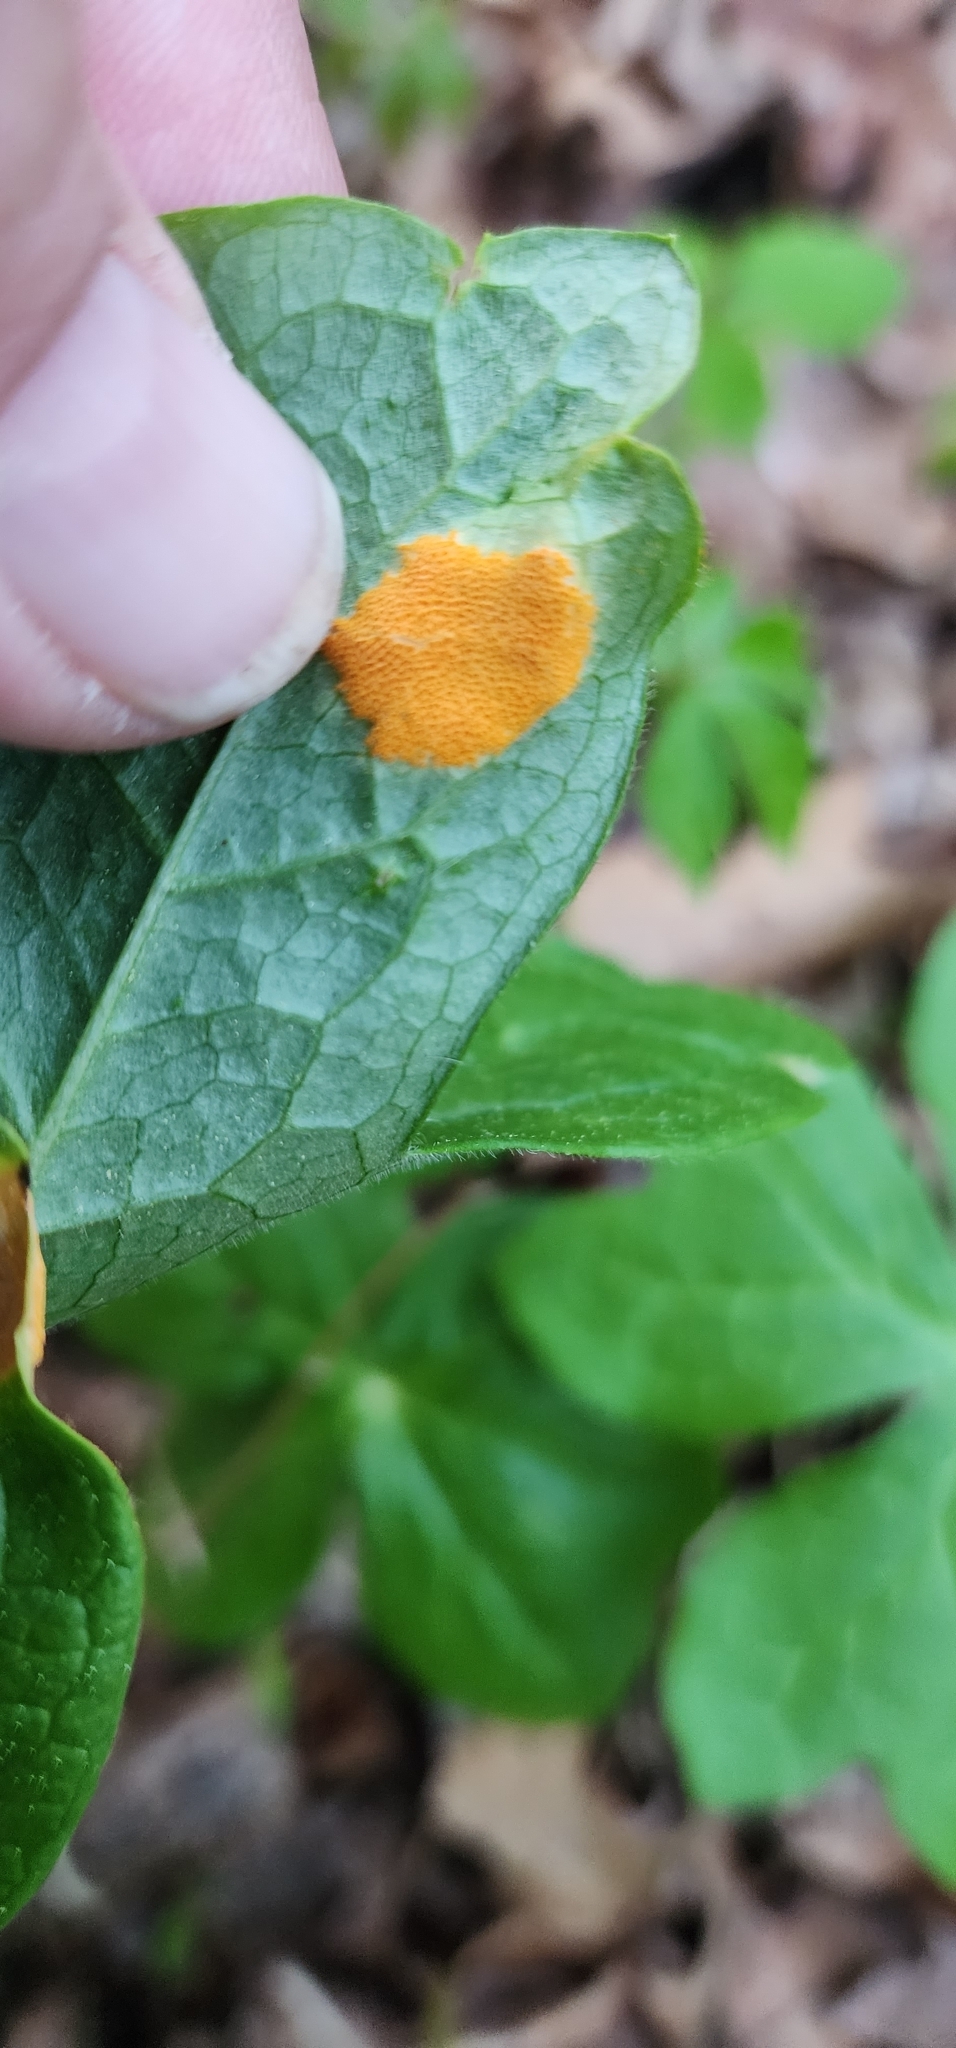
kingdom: Fungi
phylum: Basidiomycota
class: Pucciniomycetes
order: Pucciniales
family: Pucciniaceae
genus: Puccinia
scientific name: Puccinia podophylli
